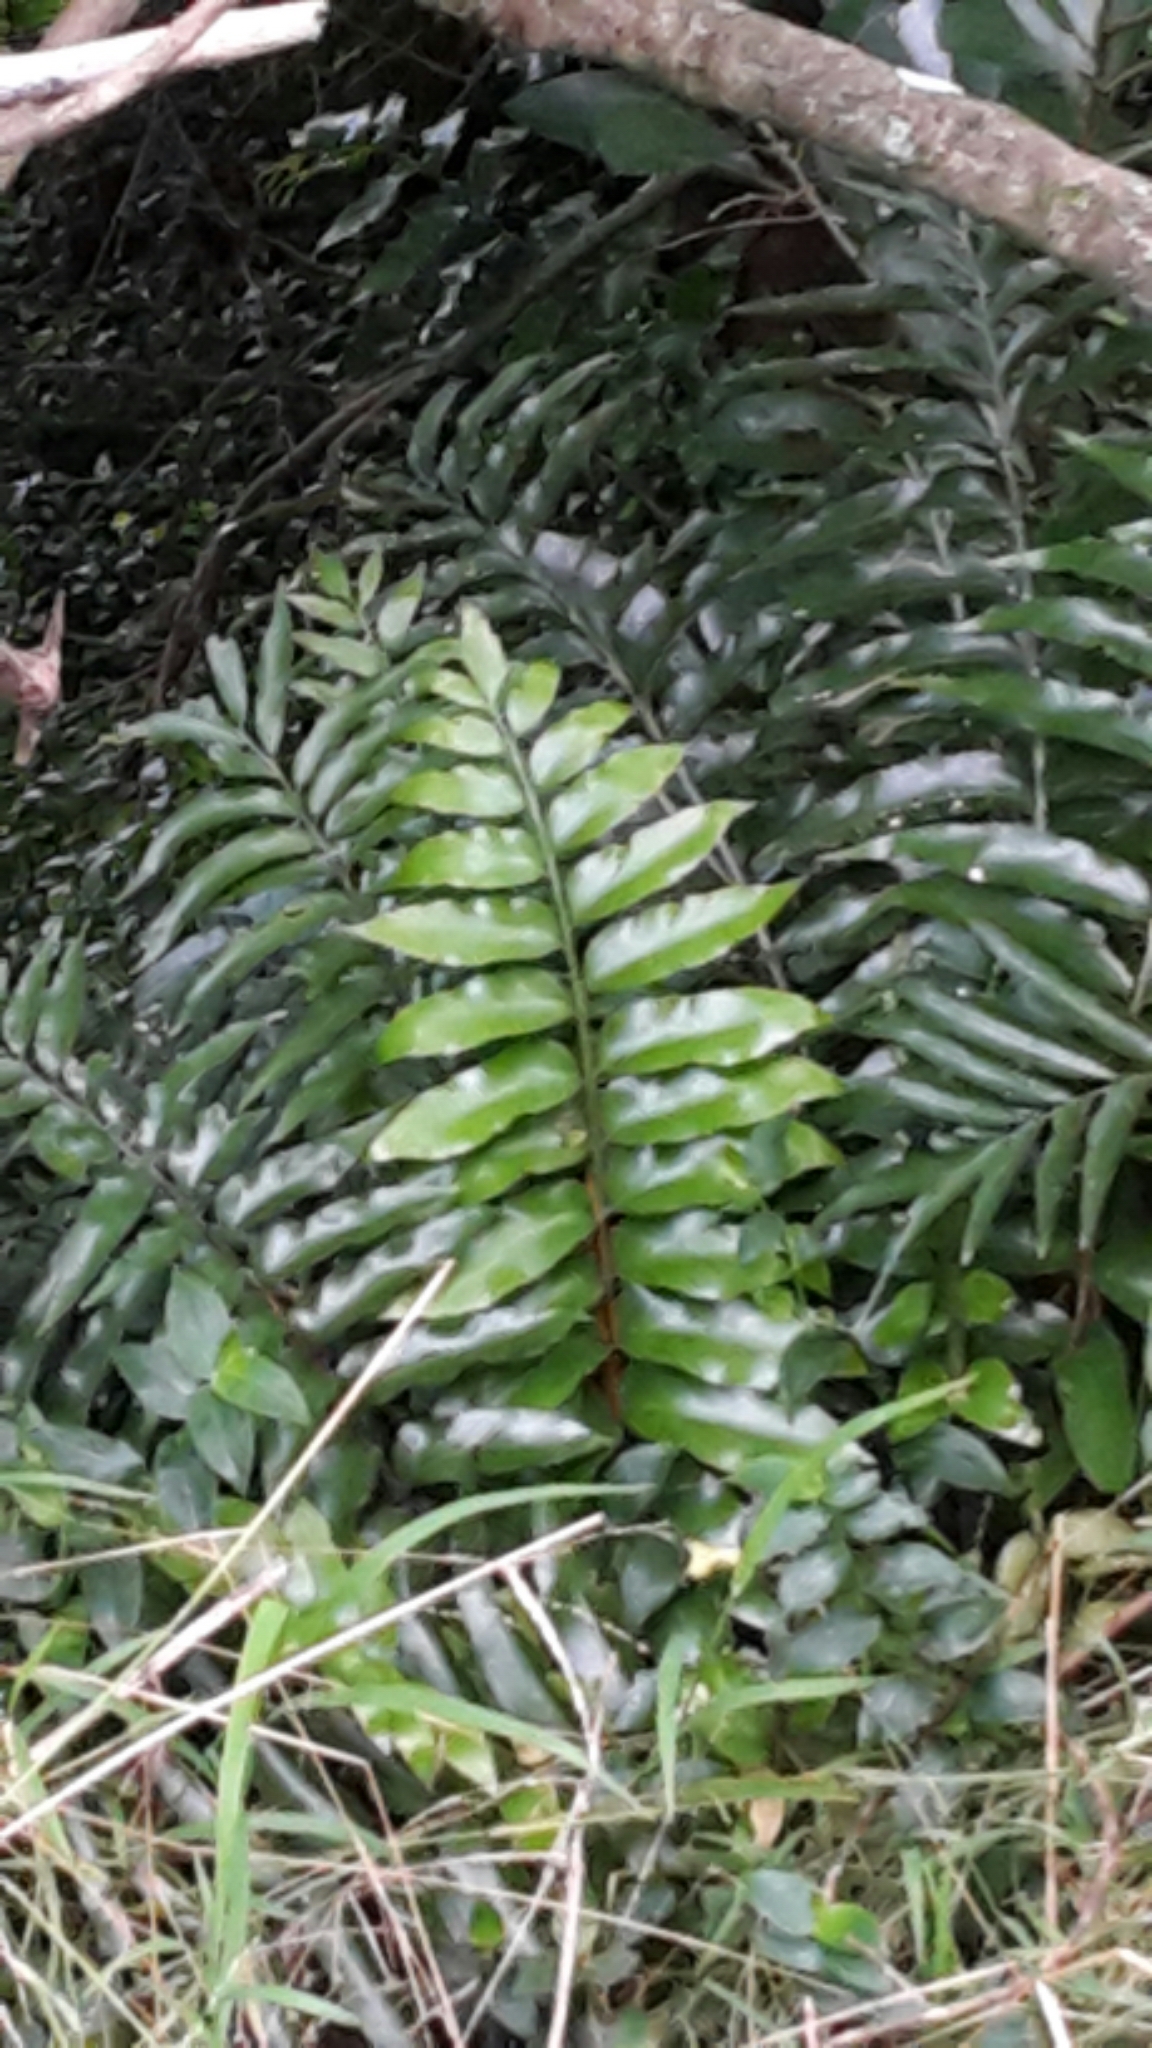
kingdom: Plantae
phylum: Tracheophyta
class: Polypodiopsida
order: Polypodiales
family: Aspleniaceae
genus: Asplenium
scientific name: Asplenium oblongifolium
